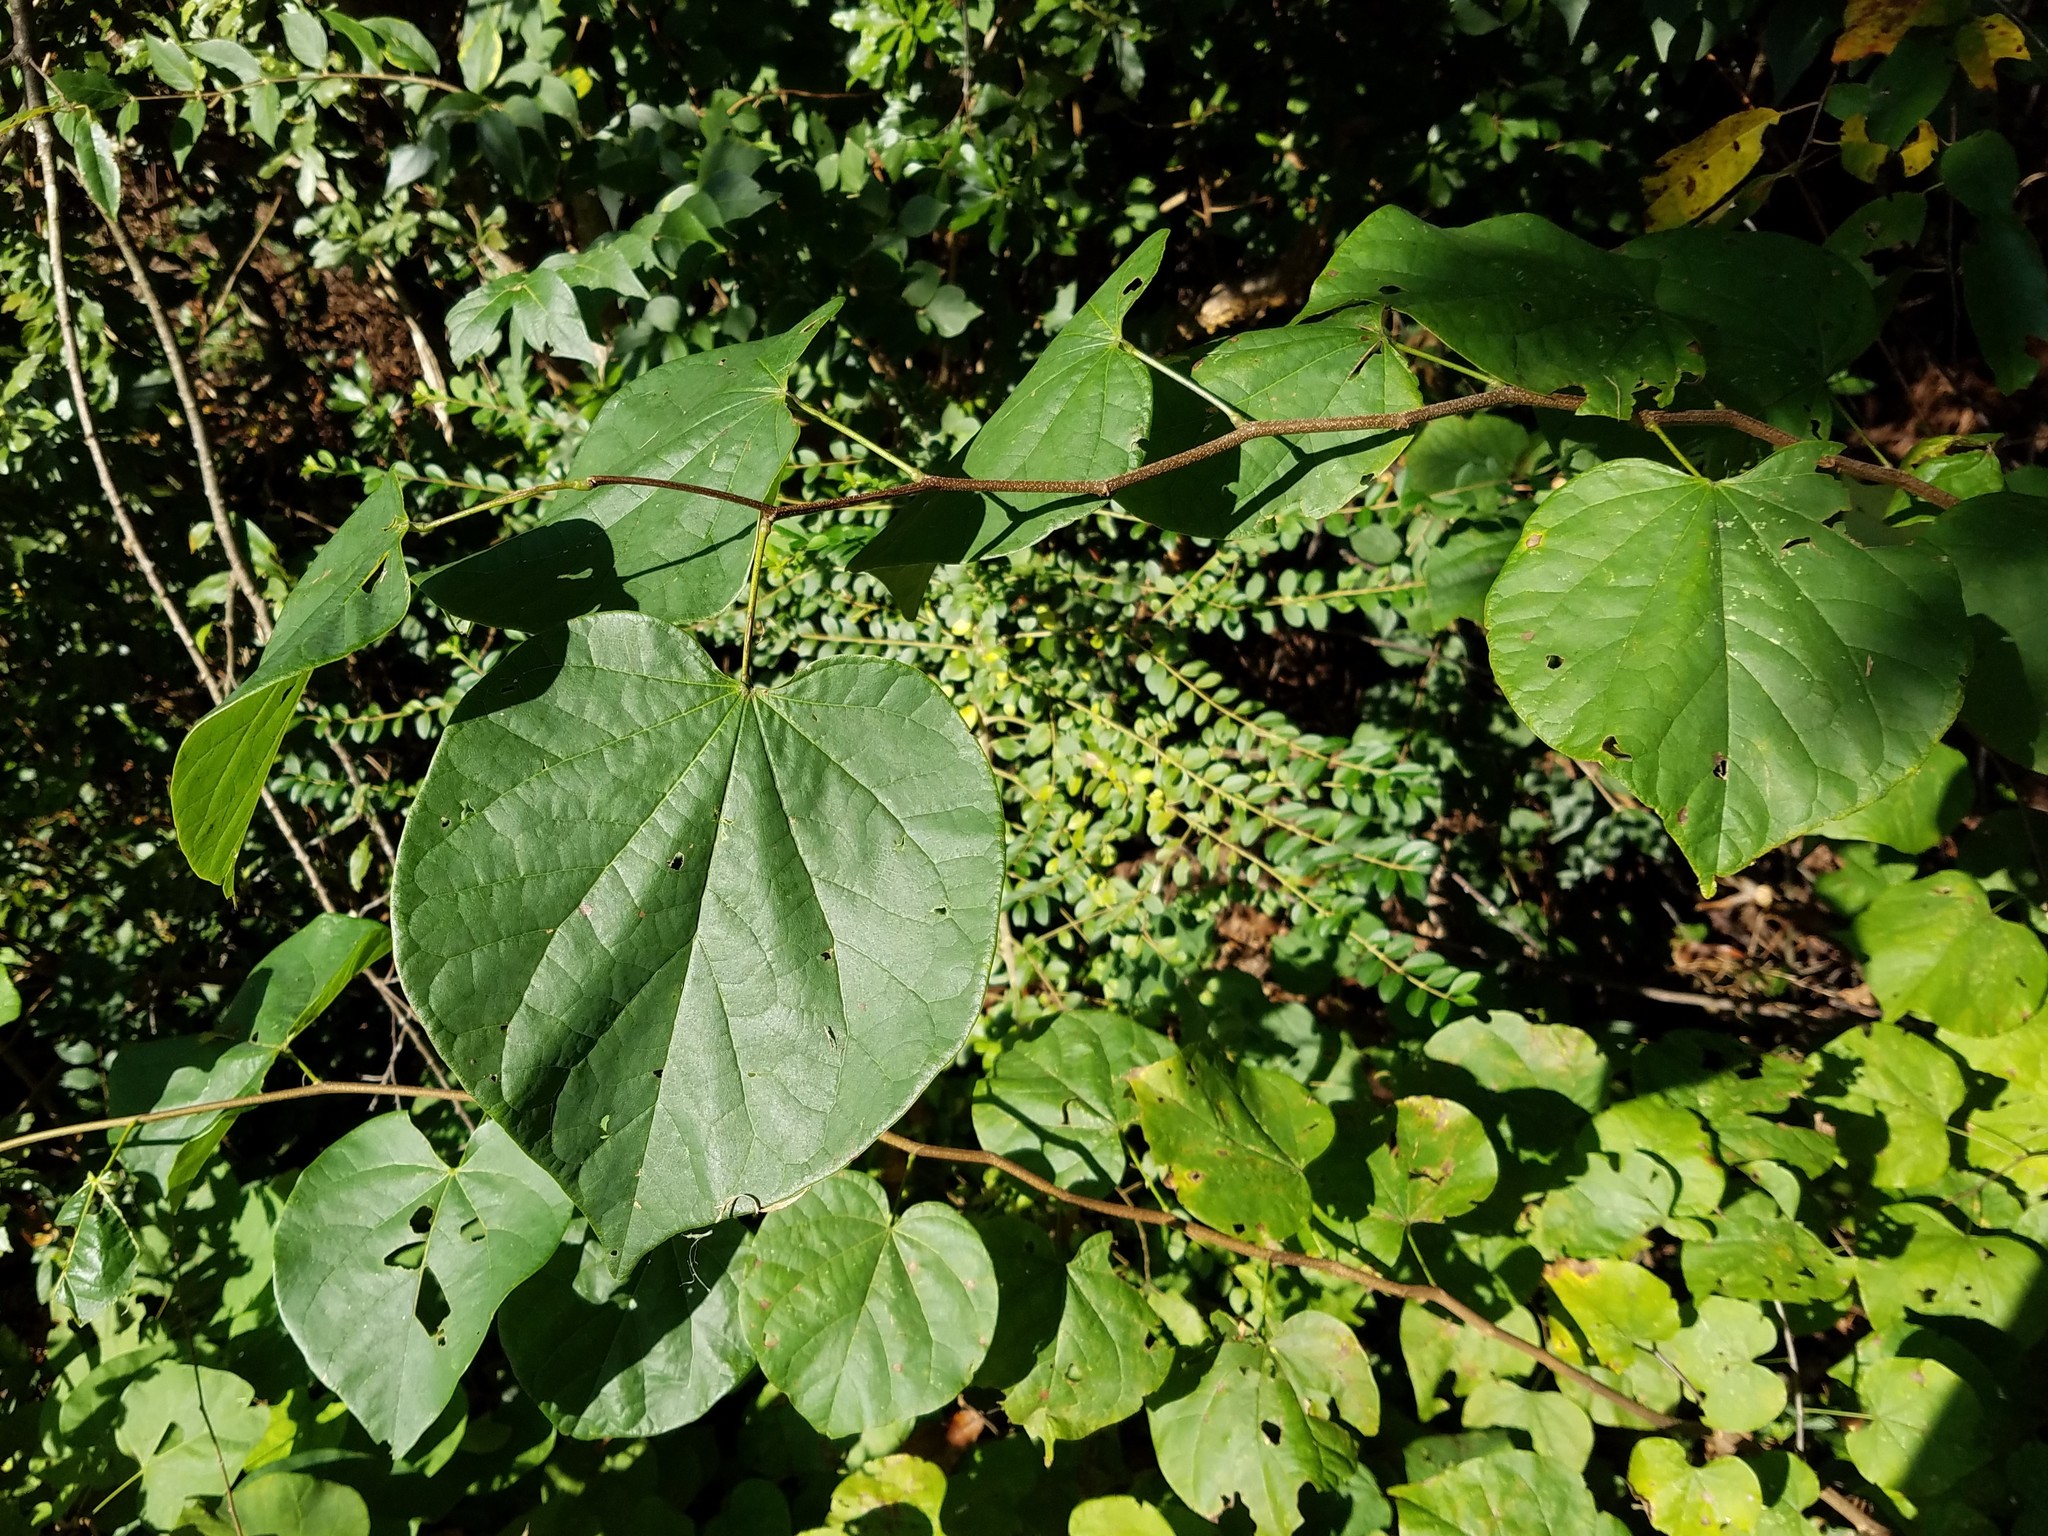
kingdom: Plantae
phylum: Tracheophyta
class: Magnoliopsida
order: Fabales
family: Fabaceae
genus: Cercis
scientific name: Cercis canadensis
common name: Eastern redbud
